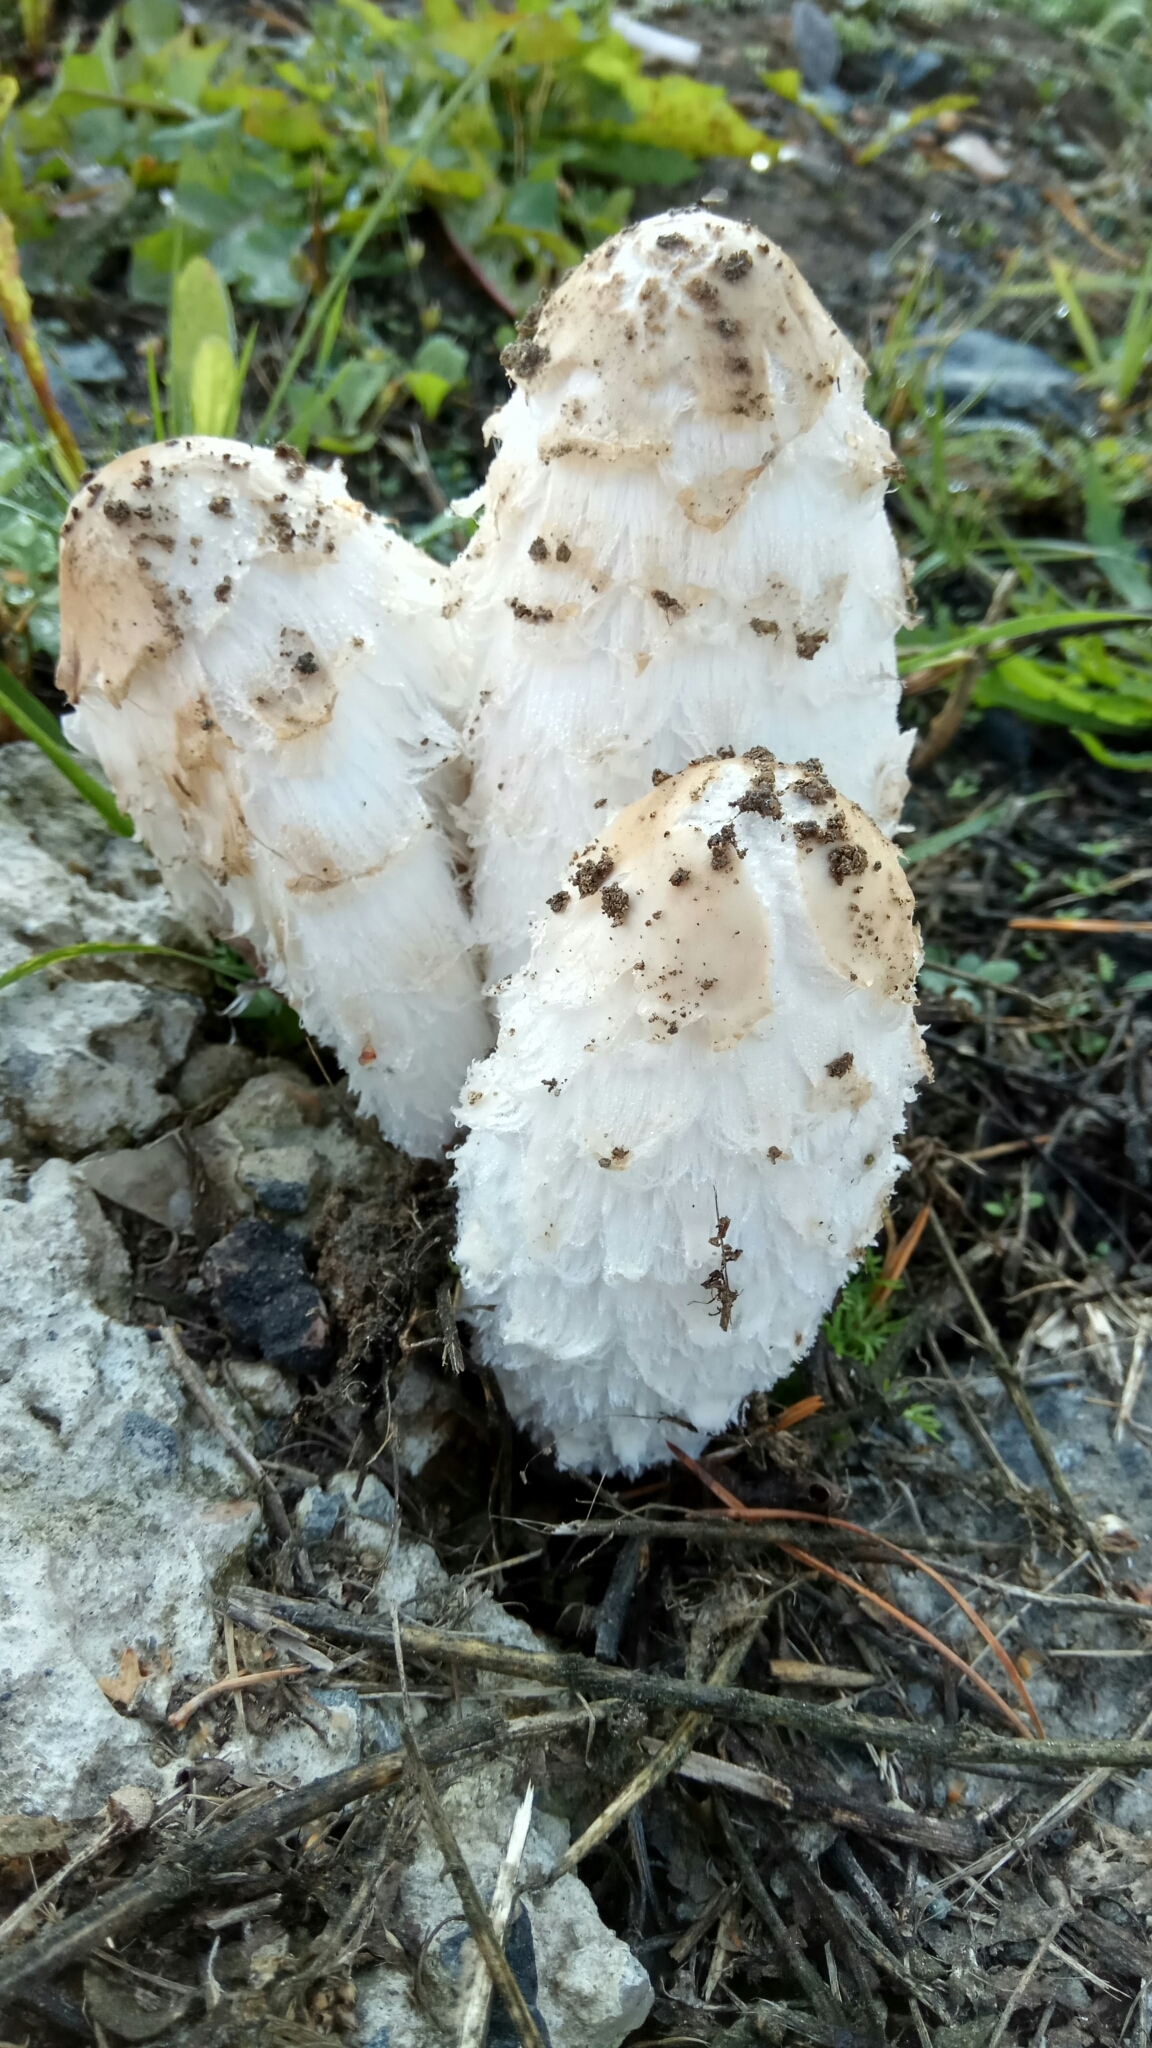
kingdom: Fungi
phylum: Basidiomycota
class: Agaricomycetes
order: Agaricales
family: Agaricaceae
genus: Coprinus
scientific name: Coprinus comatus
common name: Lawyer's wig
